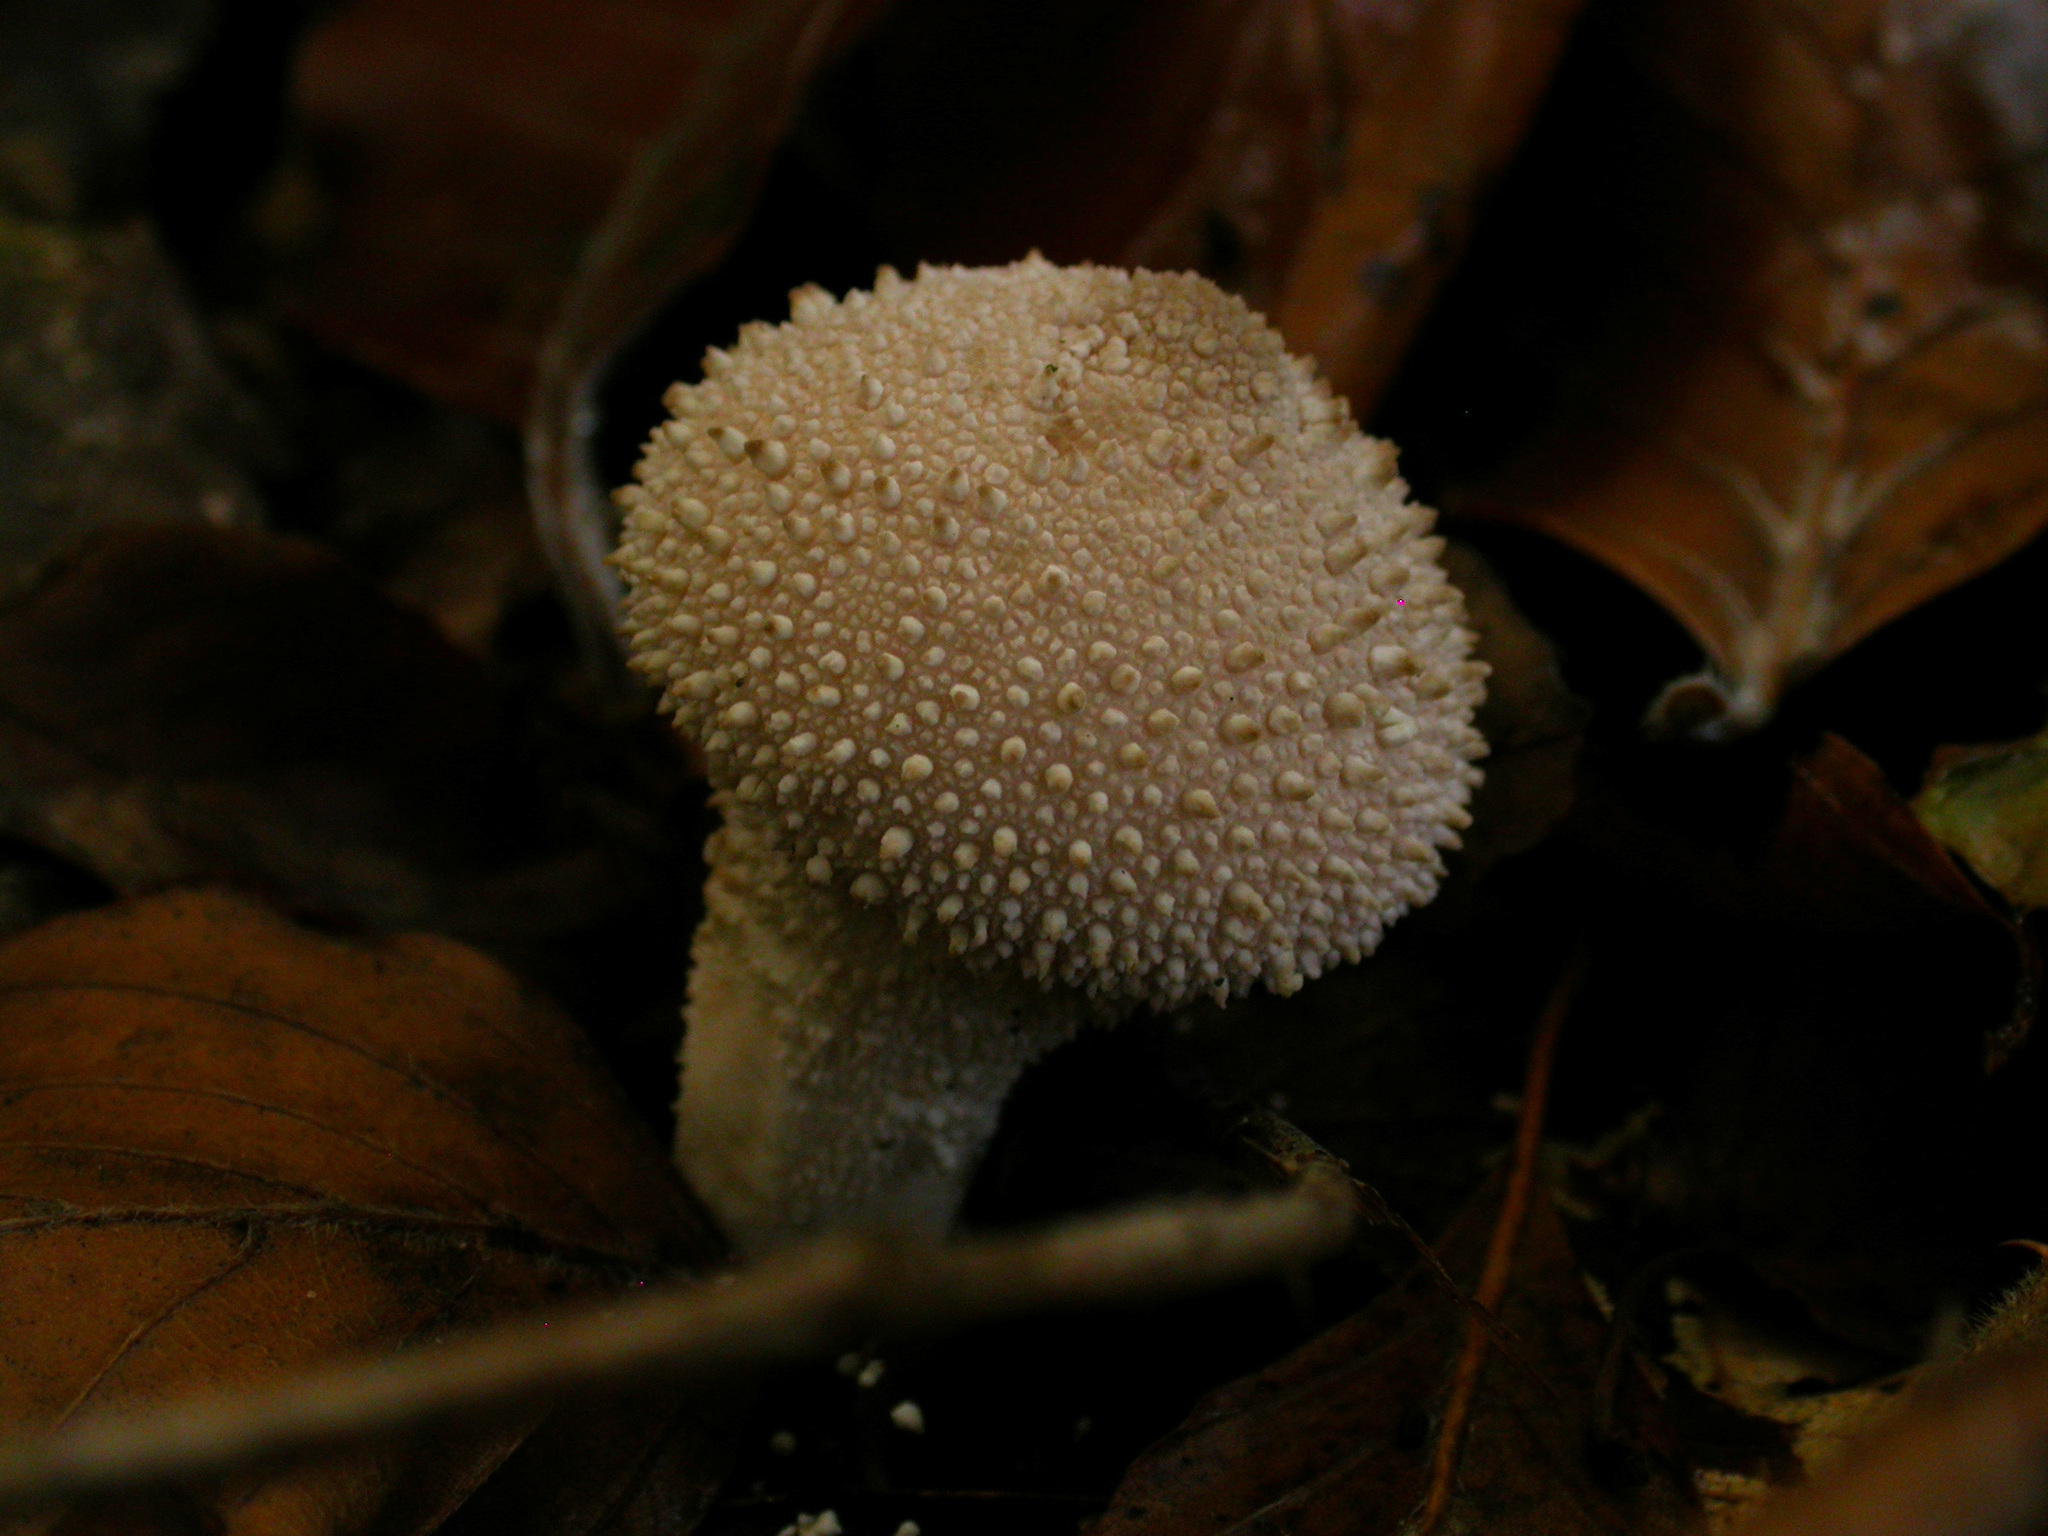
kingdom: Fungi
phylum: Basidiomycota
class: Agaricomycetes
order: Agaricales
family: Lycoperdaceae
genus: Lycoperdon
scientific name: Lycoperdon perlatum
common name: Common puffball
